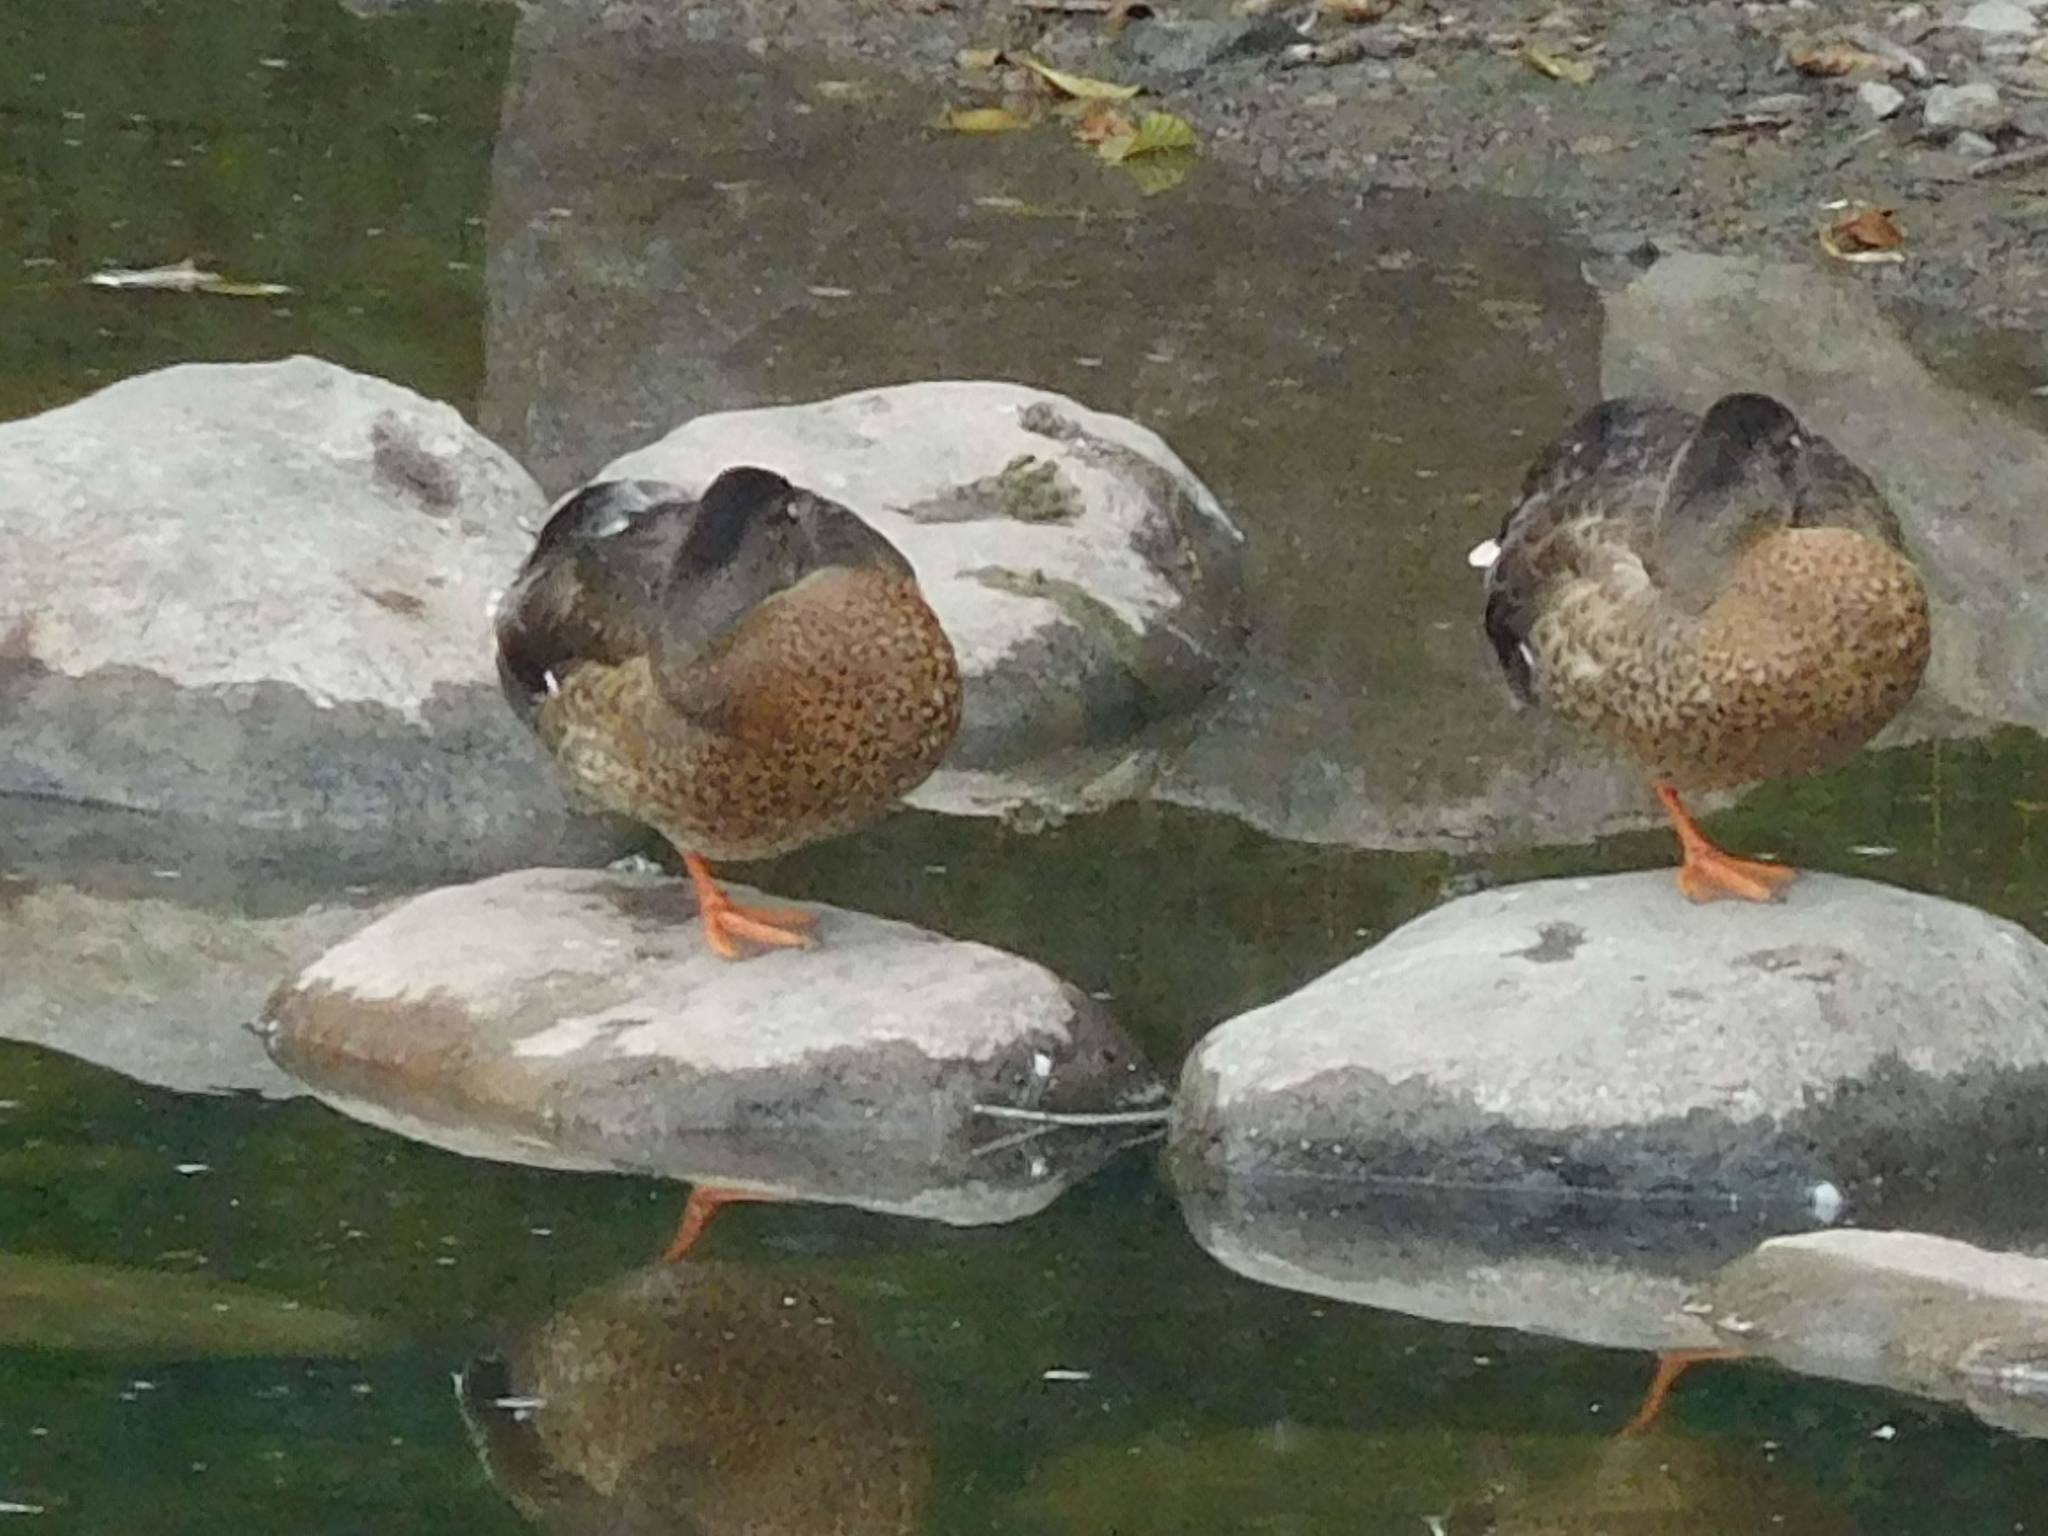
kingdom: Animalia
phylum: Chordata
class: Aves
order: Anseriformes
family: Anatidae
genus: Anas
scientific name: Anas platyrhynchos
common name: Mallard
